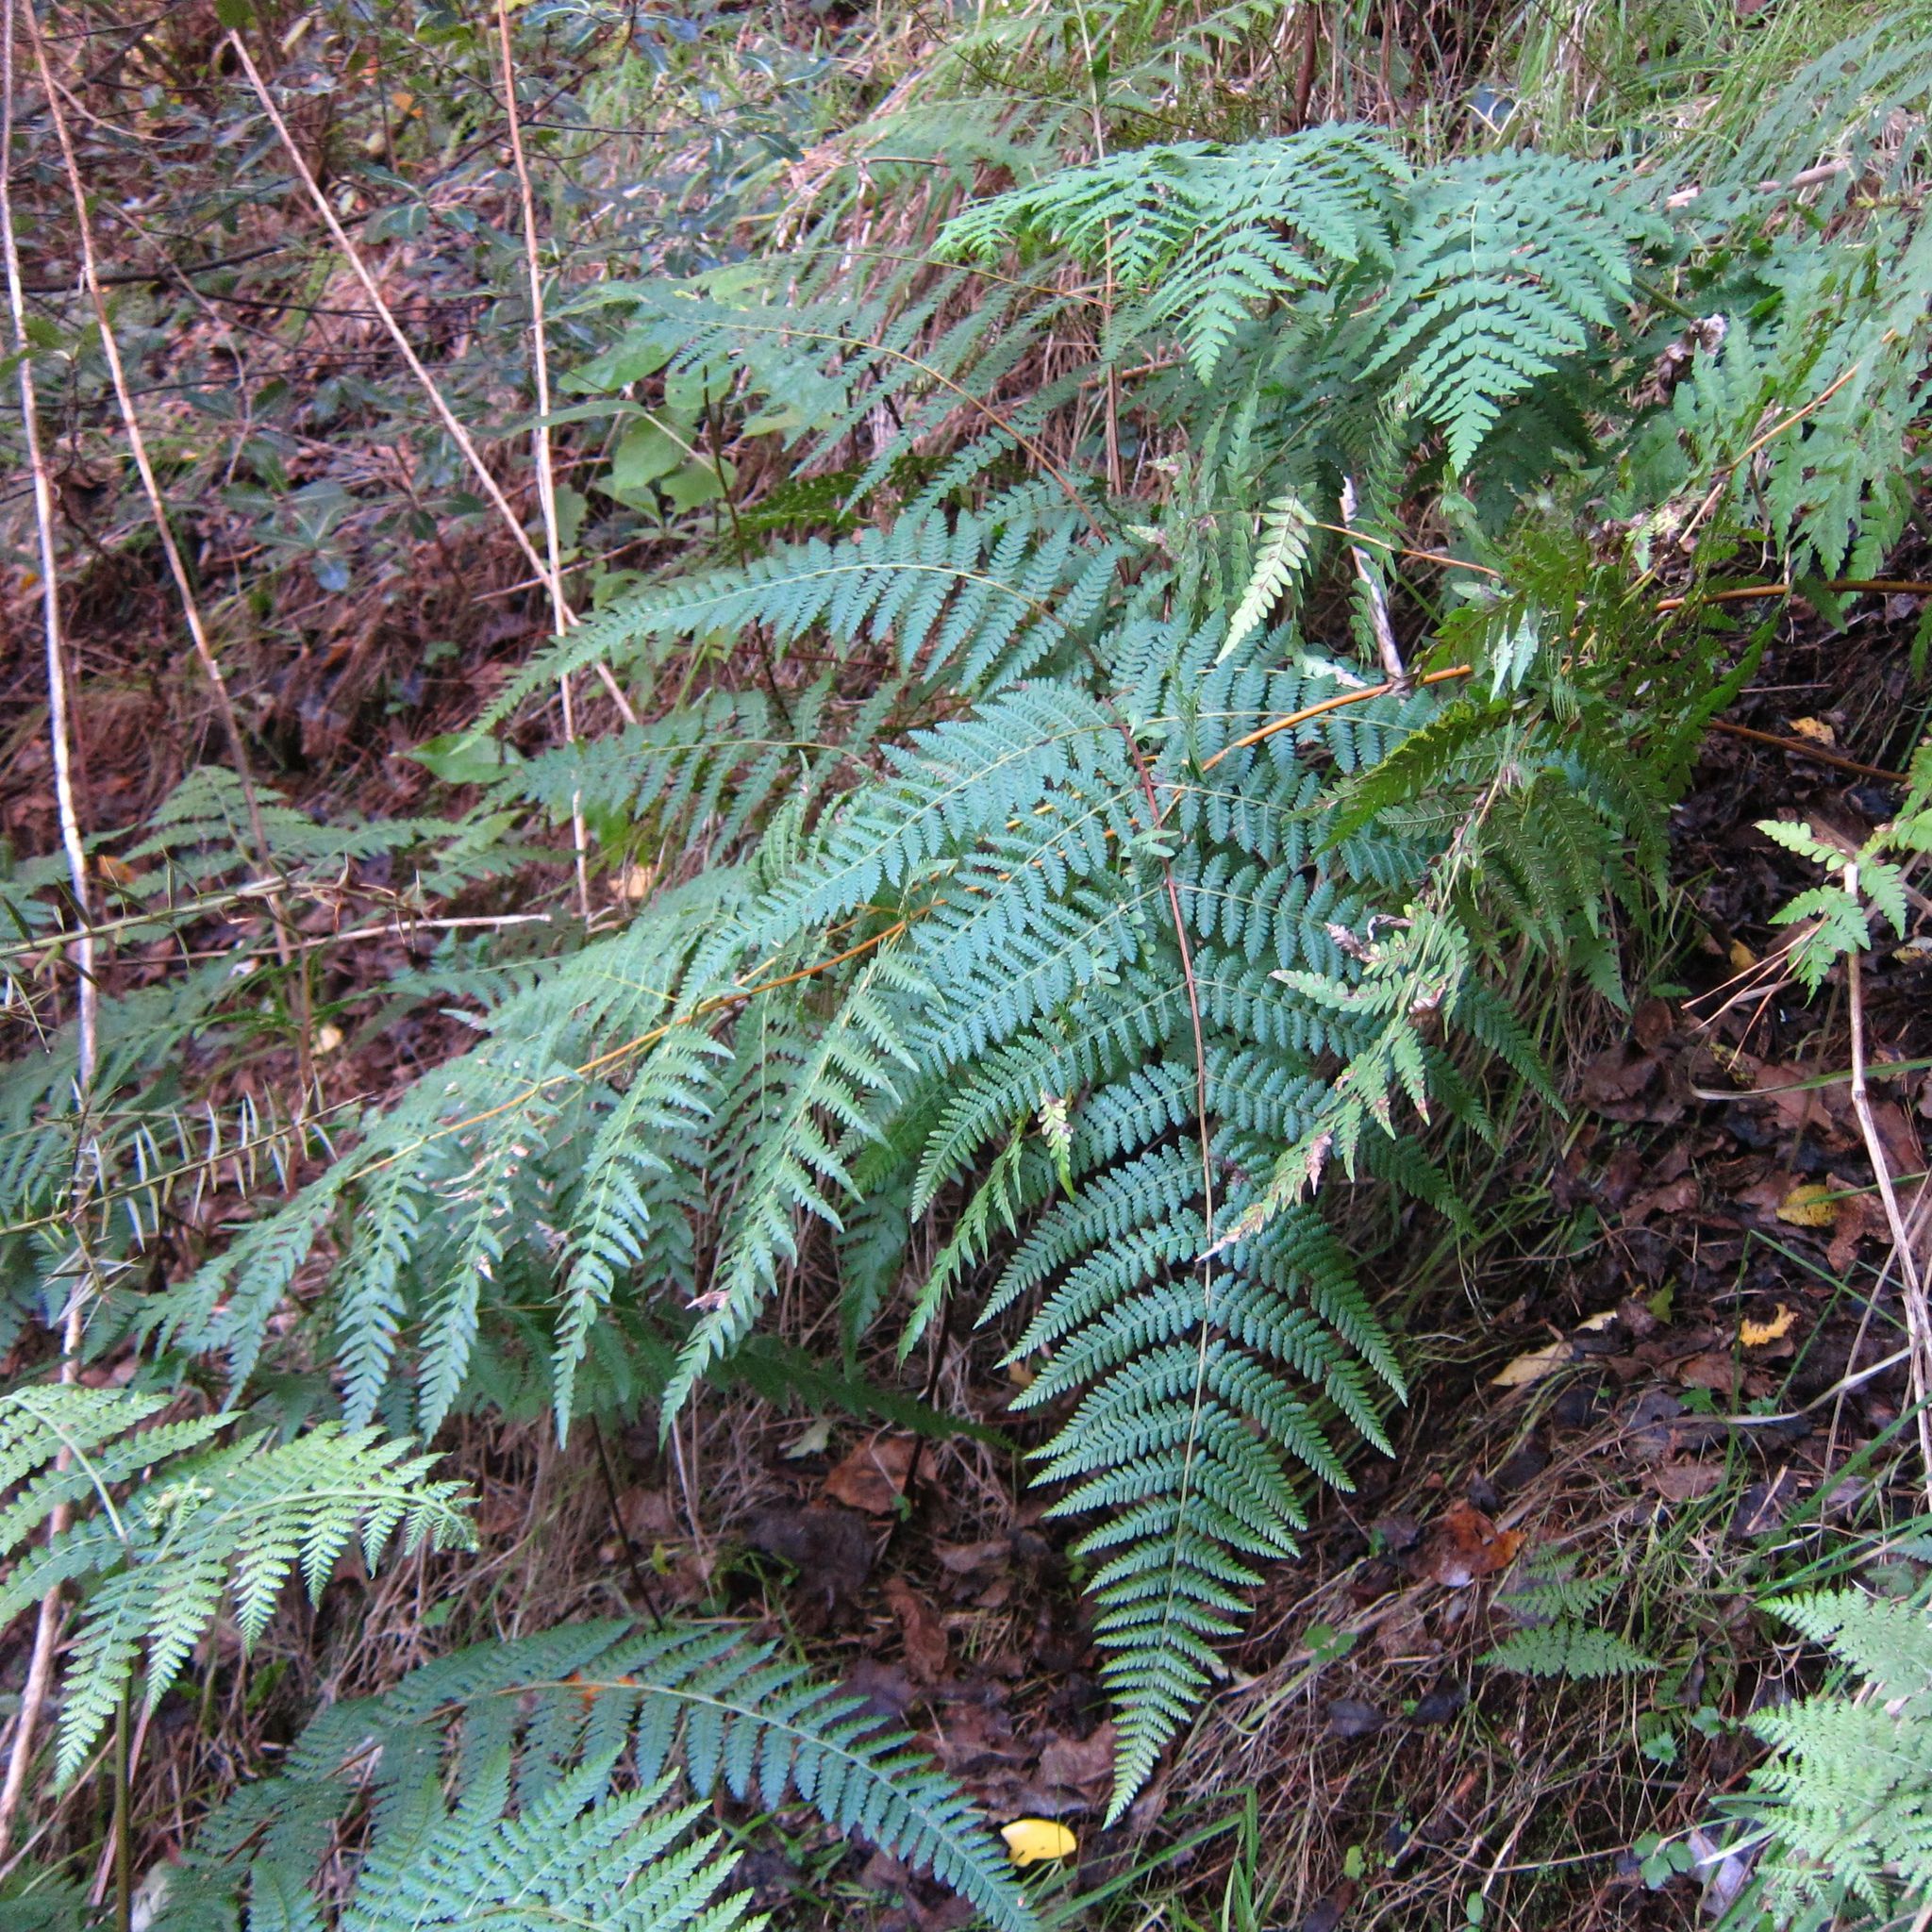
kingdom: Plantae
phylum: Tracheophyta
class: Polypodiopsida
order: Polypodiales
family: Dennstaedtiaceae
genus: Hypolepis
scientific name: Hypolepis ambigua
